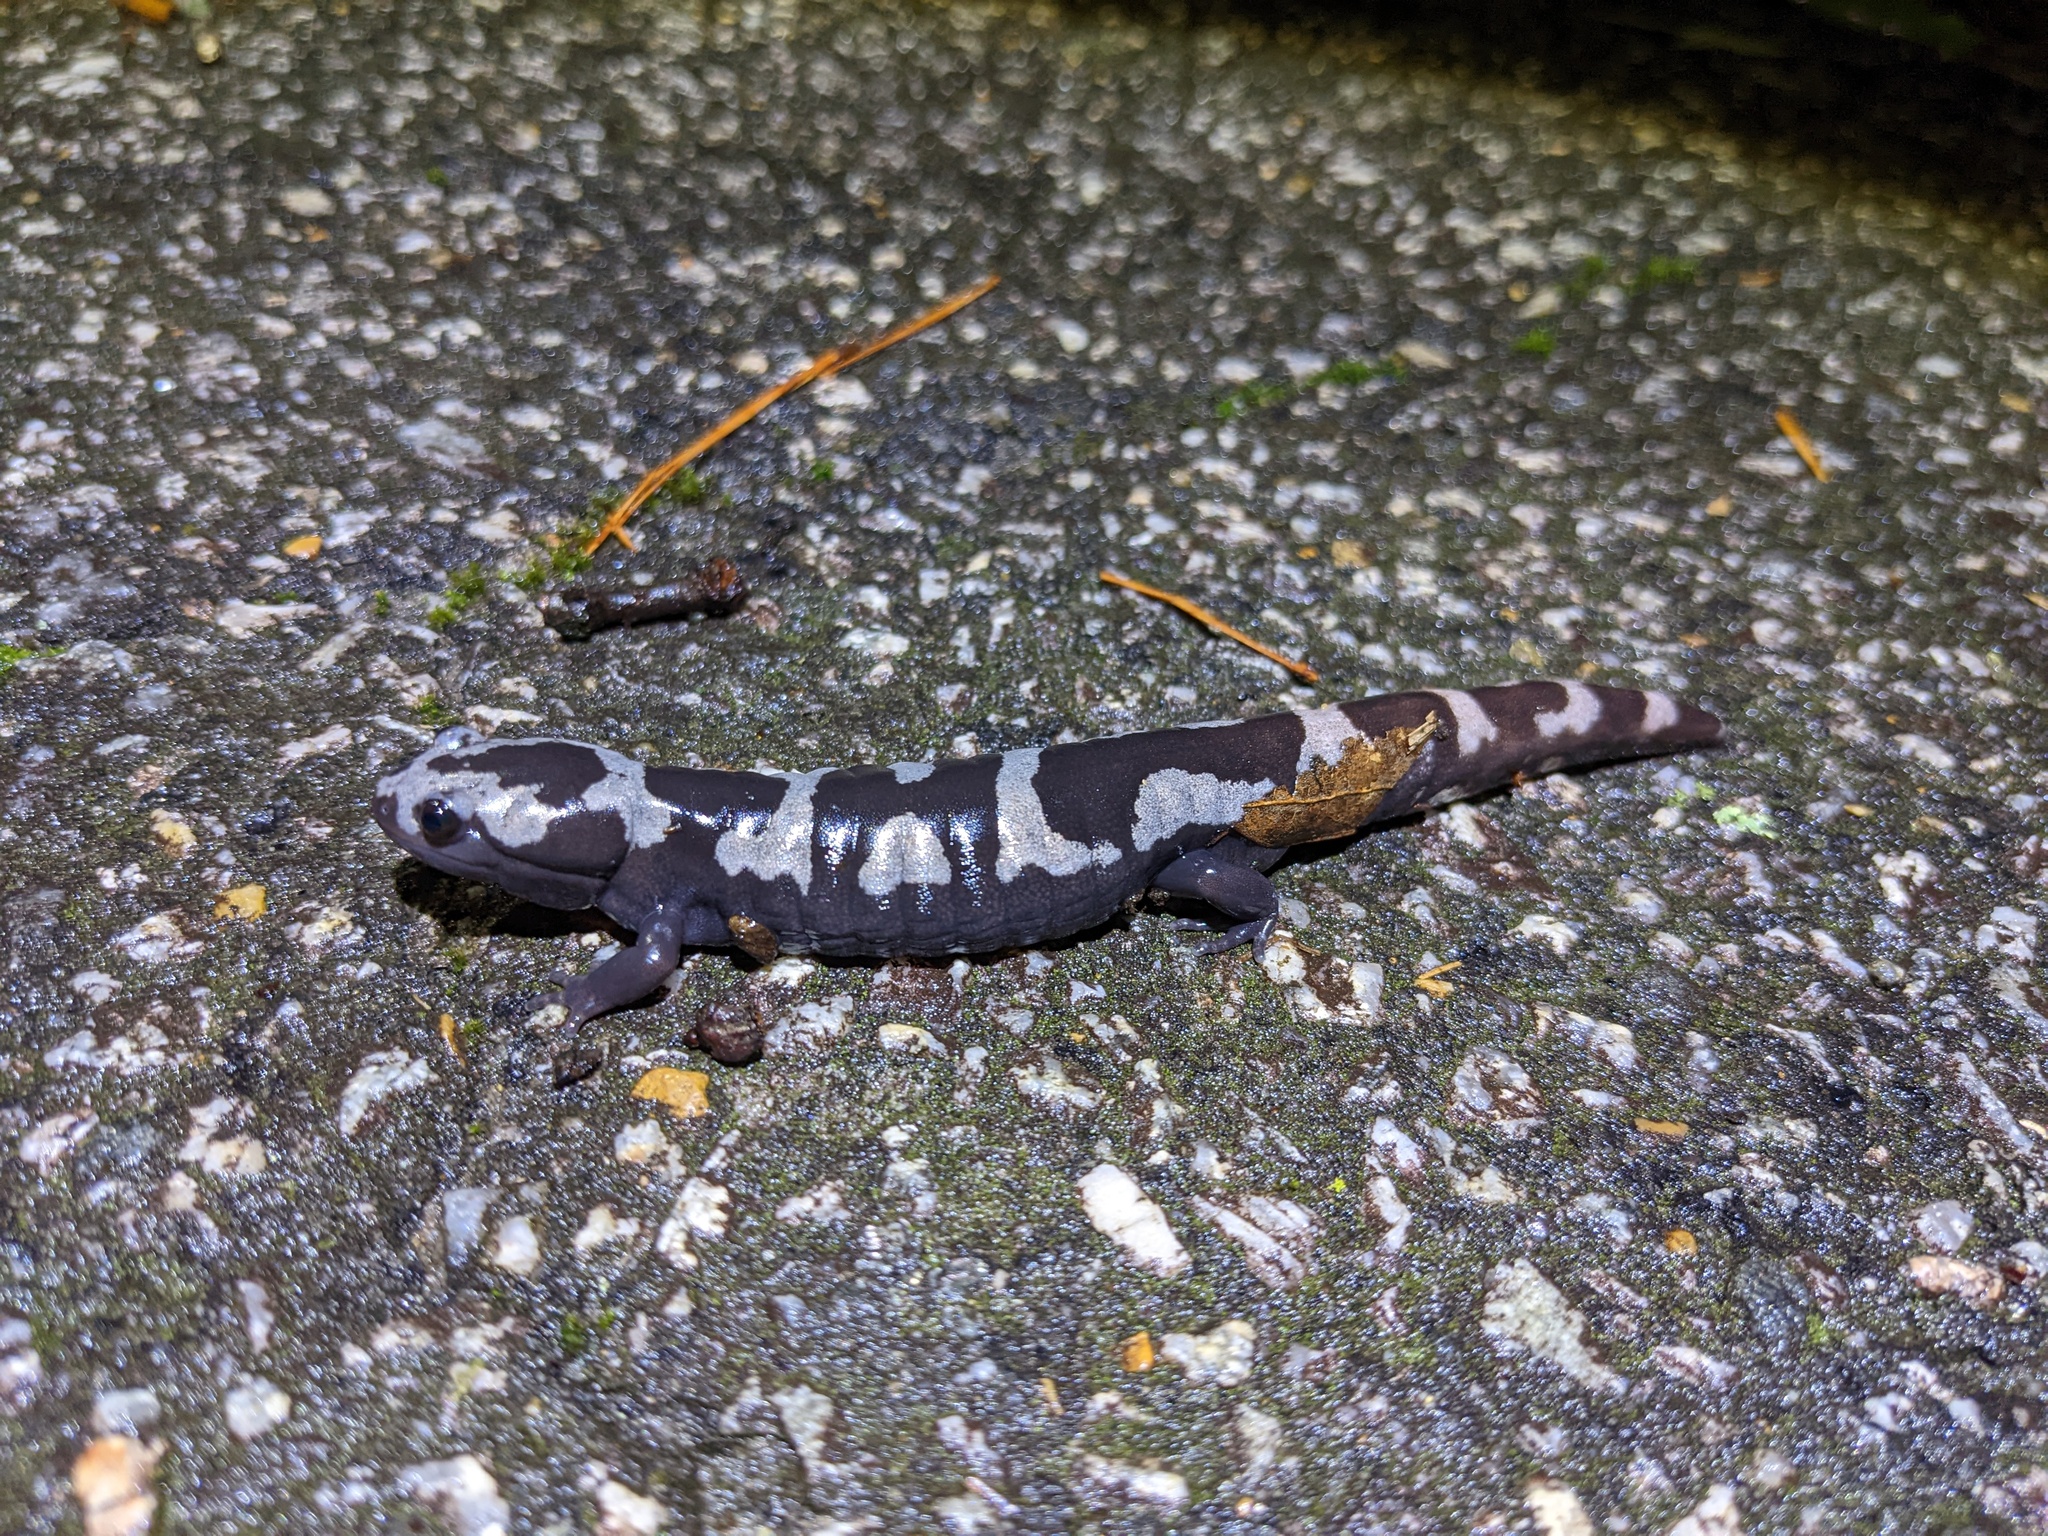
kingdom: Animalia
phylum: Chordata
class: Amphibia
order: Caudata
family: Ambystomatidae
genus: Ambystoma
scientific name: Ambystoma opacum
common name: Marbled salamander
